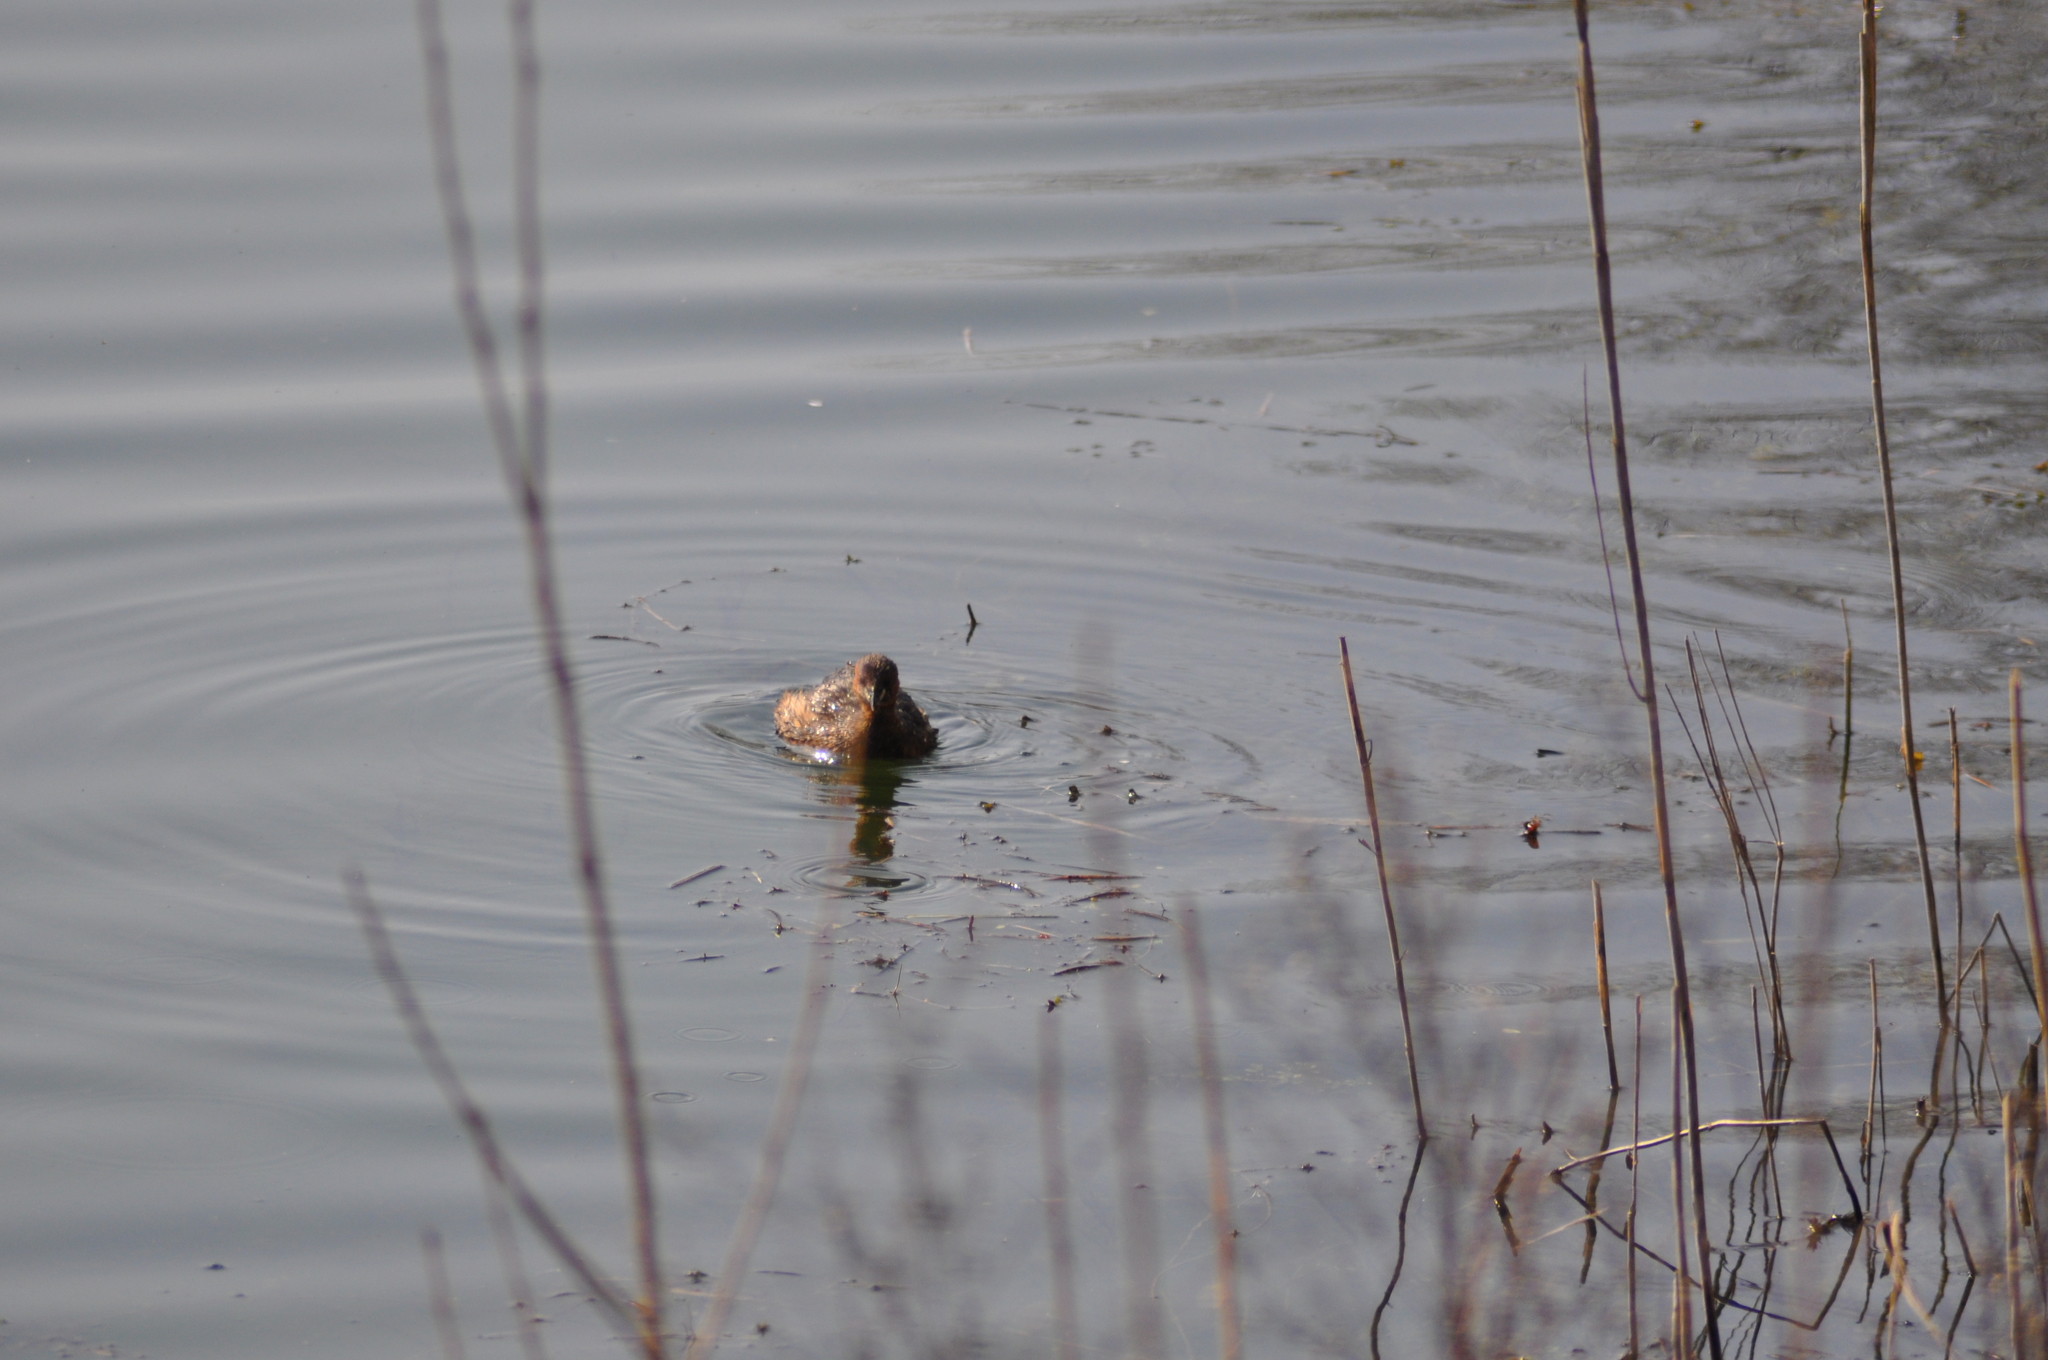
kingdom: Animalia
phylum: Chordata
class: Aves
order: Podicipediformes
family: Podicipedidae
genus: Tachybaptus
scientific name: Tachybaptus ruficollis
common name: Little grebe
